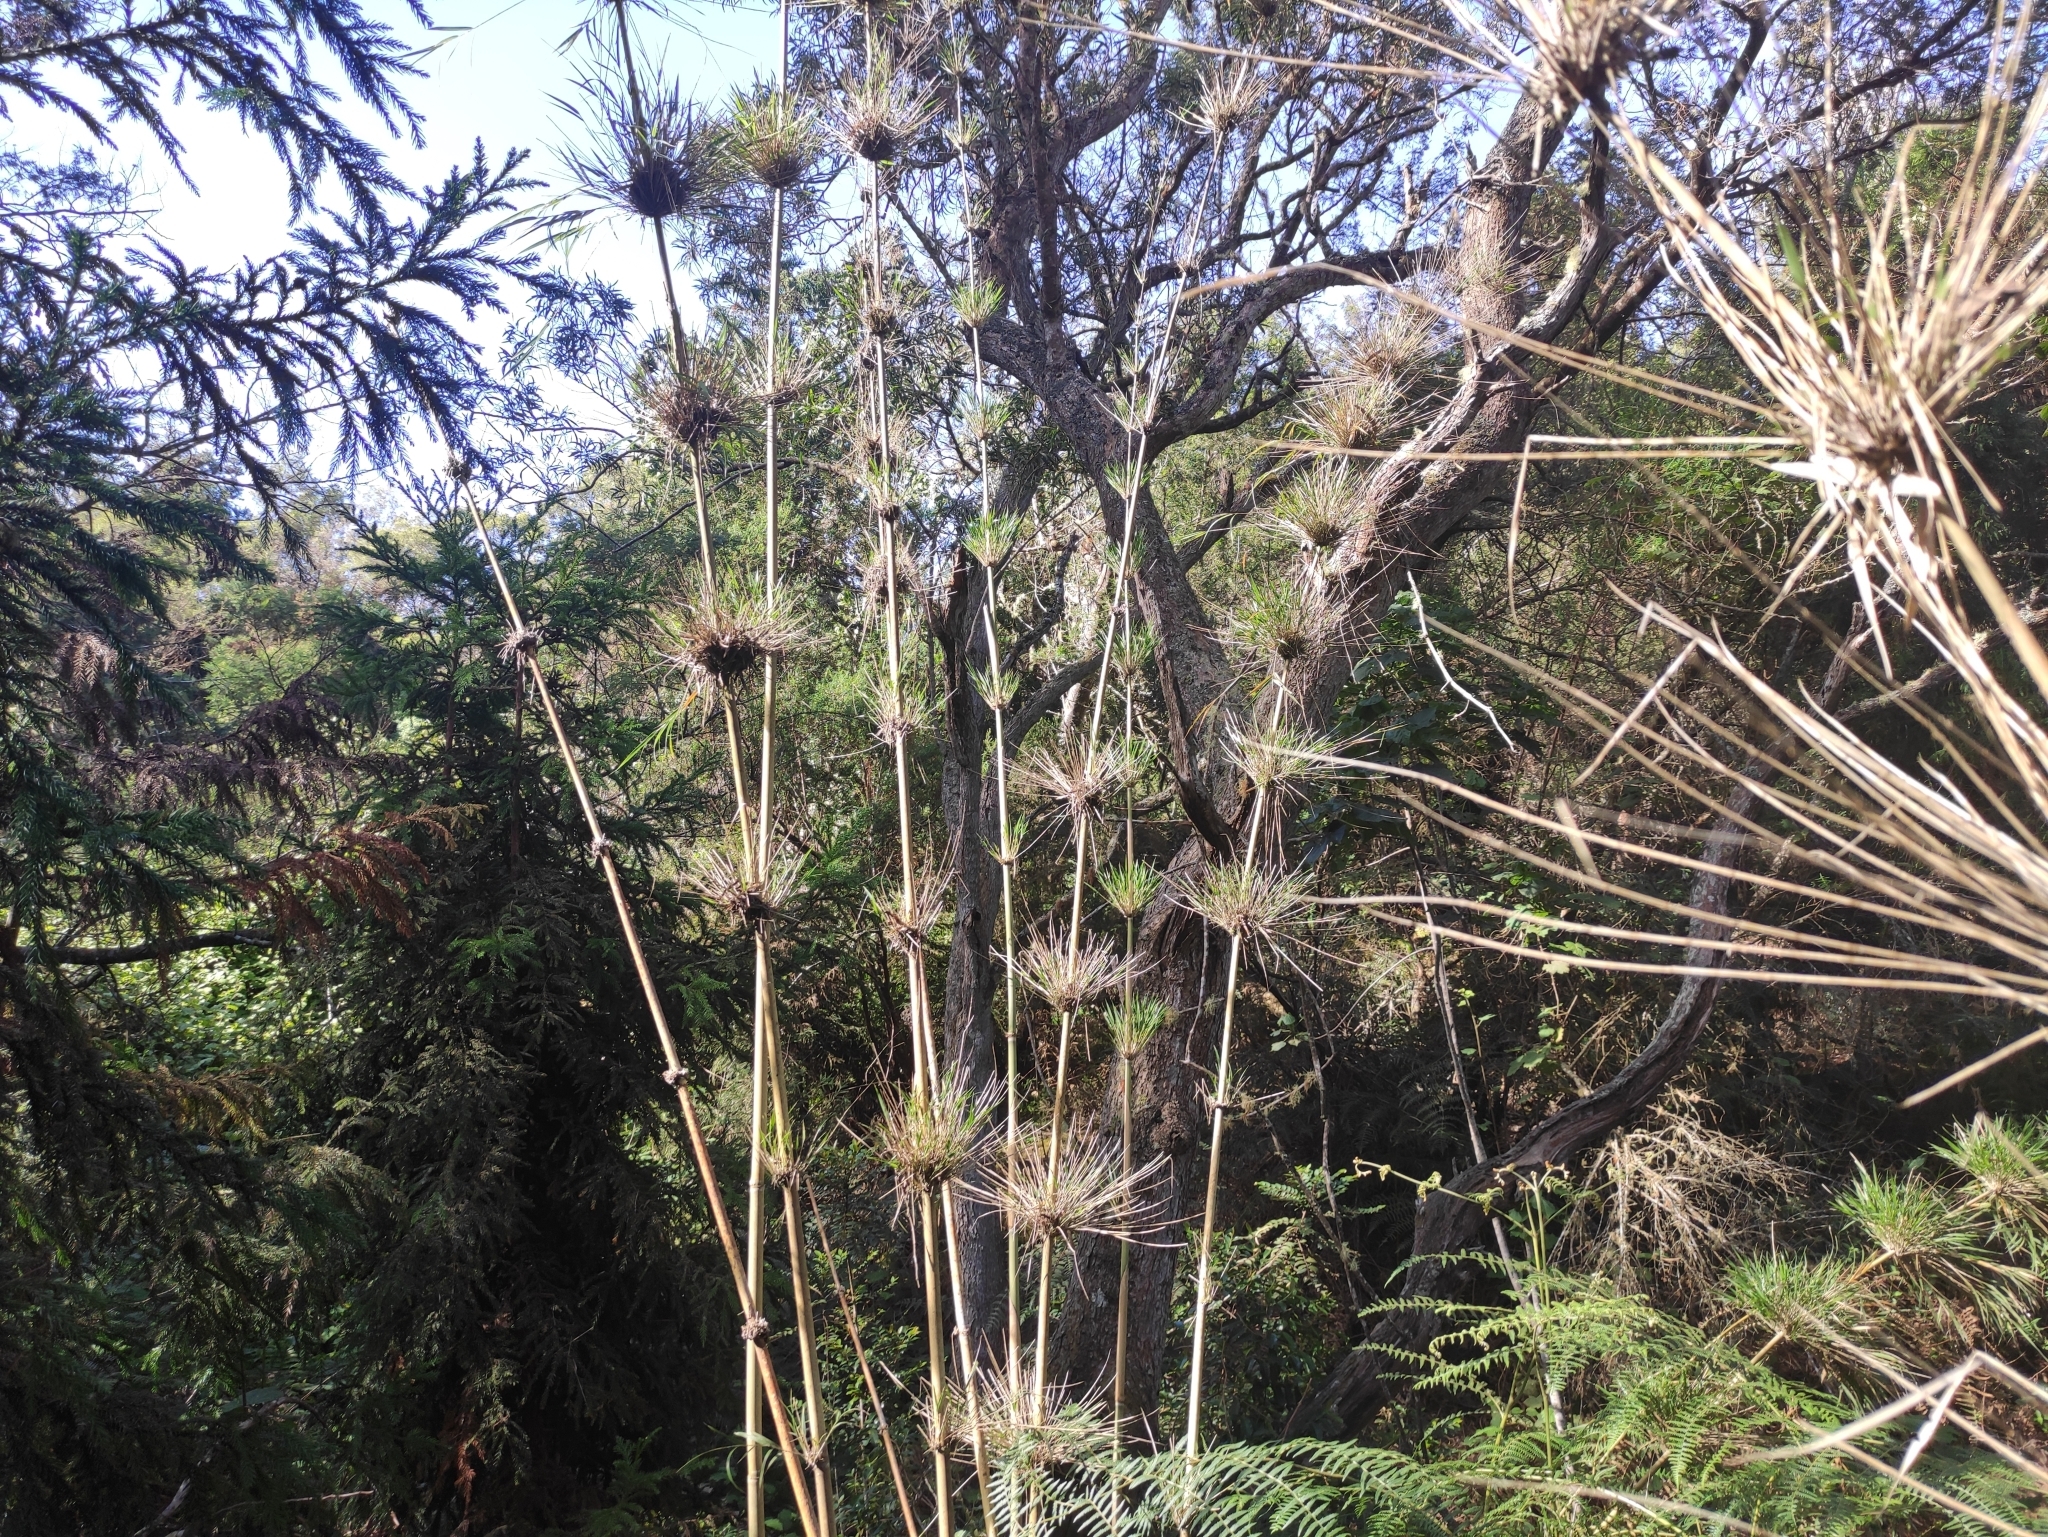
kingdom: Plantae
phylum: Tracheophyta
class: Liliopsida
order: Poales
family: Poaceae
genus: Nastus
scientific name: Nastus borbonicus
